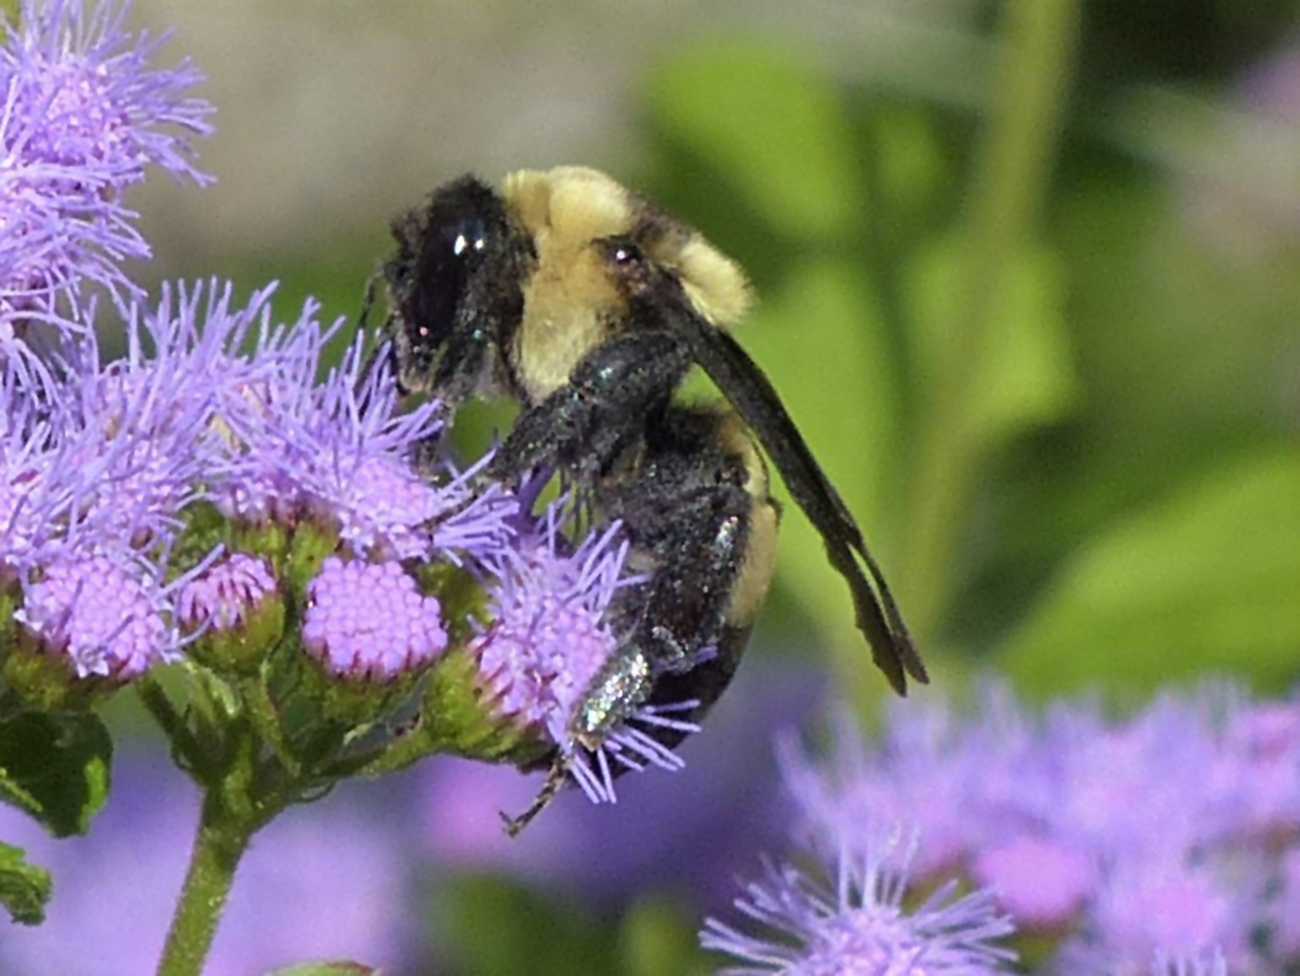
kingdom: Animalia
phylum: Arthropoda
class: Insecta
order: Hymenoptera
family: Apidae
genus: Bombus
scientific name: Bombus fraternus
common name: Southern plains bumble bee
